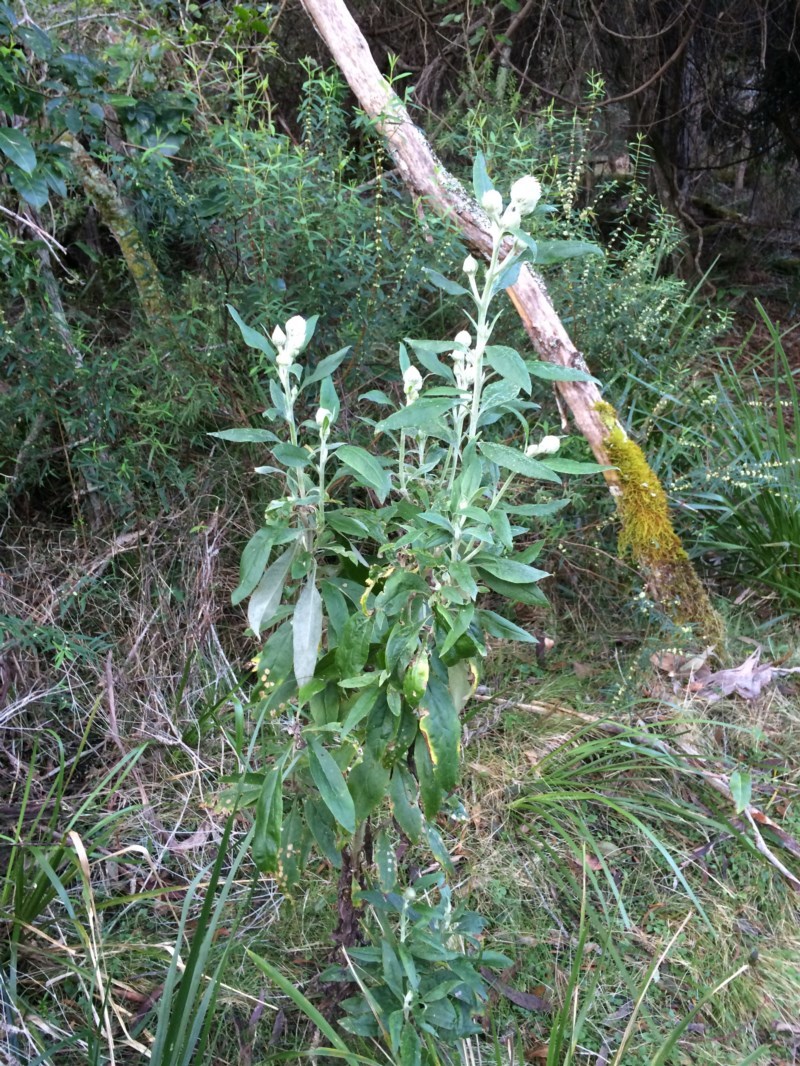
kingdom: Plantae
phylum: Tracheophyta
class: Magnoliopsida
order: Asterales
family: Asteraceae
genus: Leucozoma
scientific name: Leucozoma elatum
